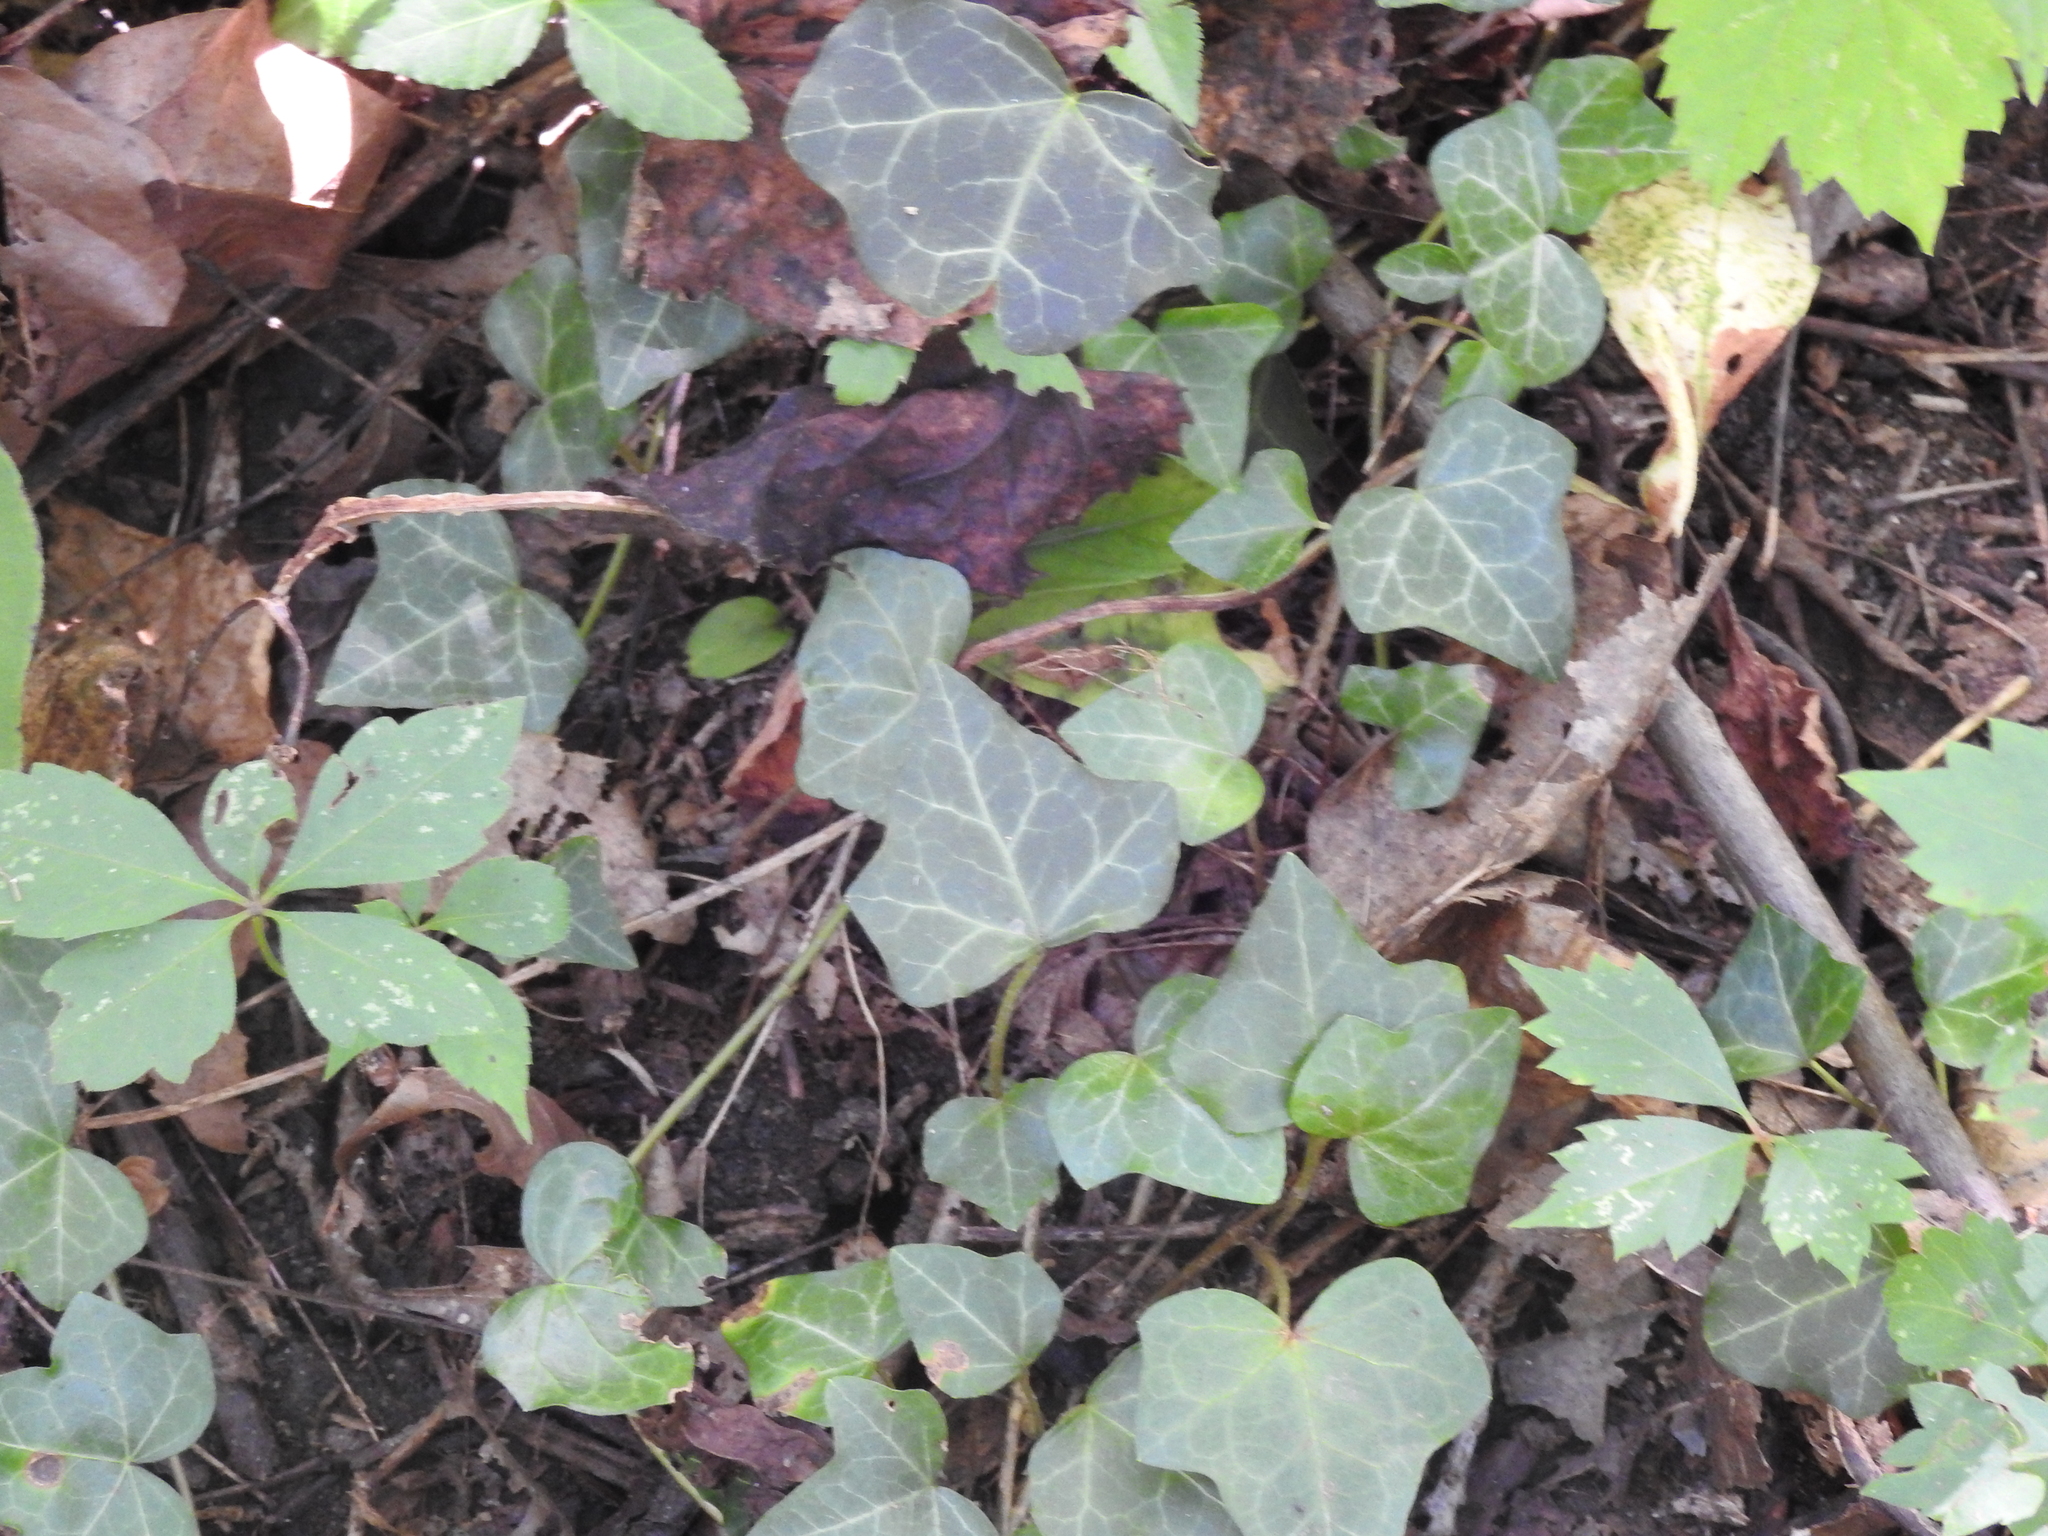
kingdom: Plantae
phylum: Tracheophyta
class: Magnoliopsida
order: Apiales
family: Araliaceae
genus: Hedera
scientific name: Hedera helix
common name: Ivy
